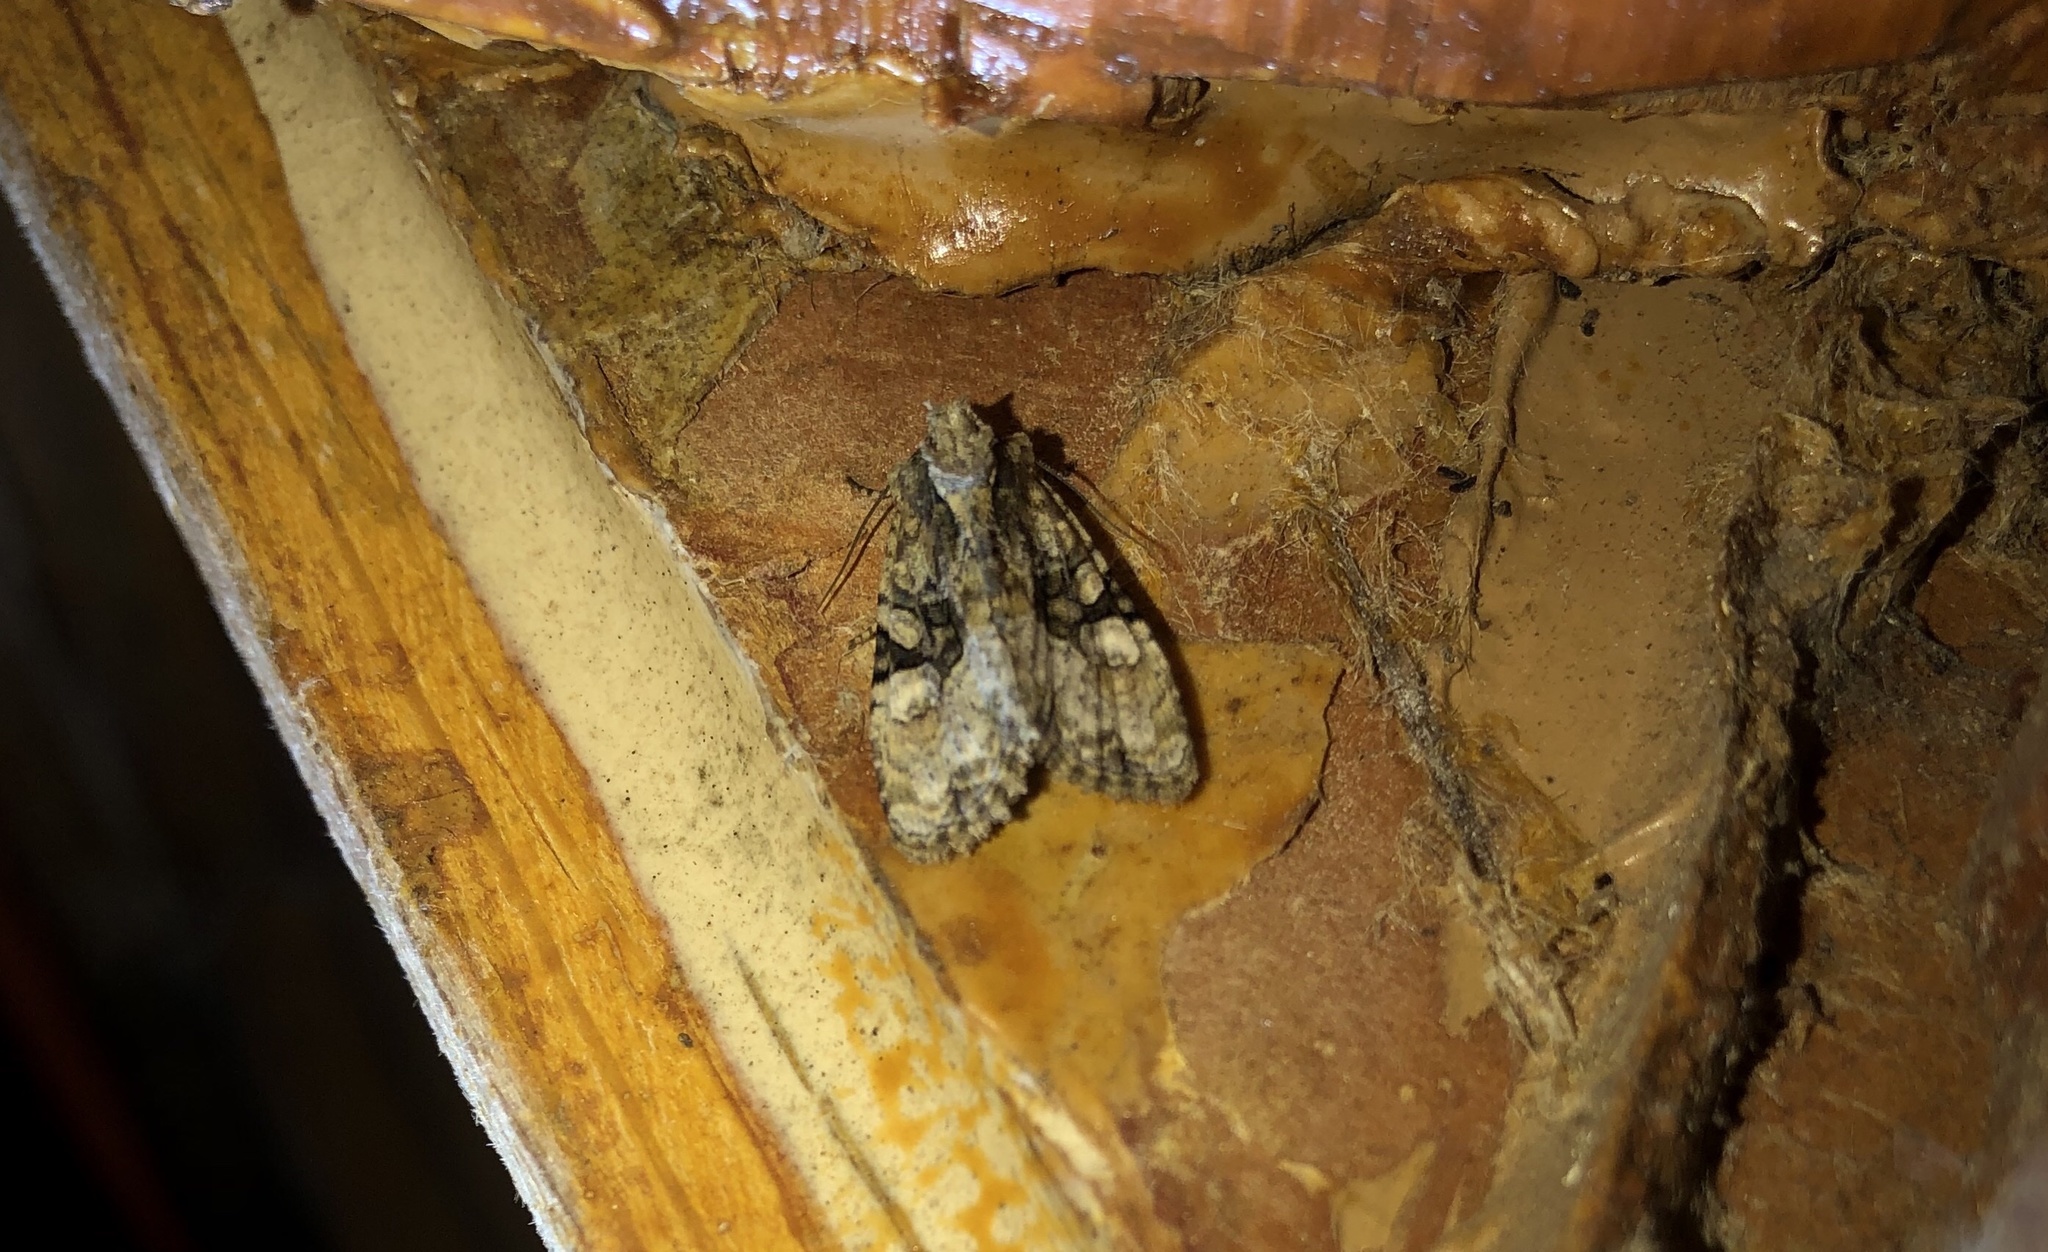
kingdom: Animalia
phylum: Arthropoda
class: Insecta
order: Lepidoptera
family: Noctuidae
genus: Oligia
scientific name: Oligia modica
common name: Black-banded brocade
